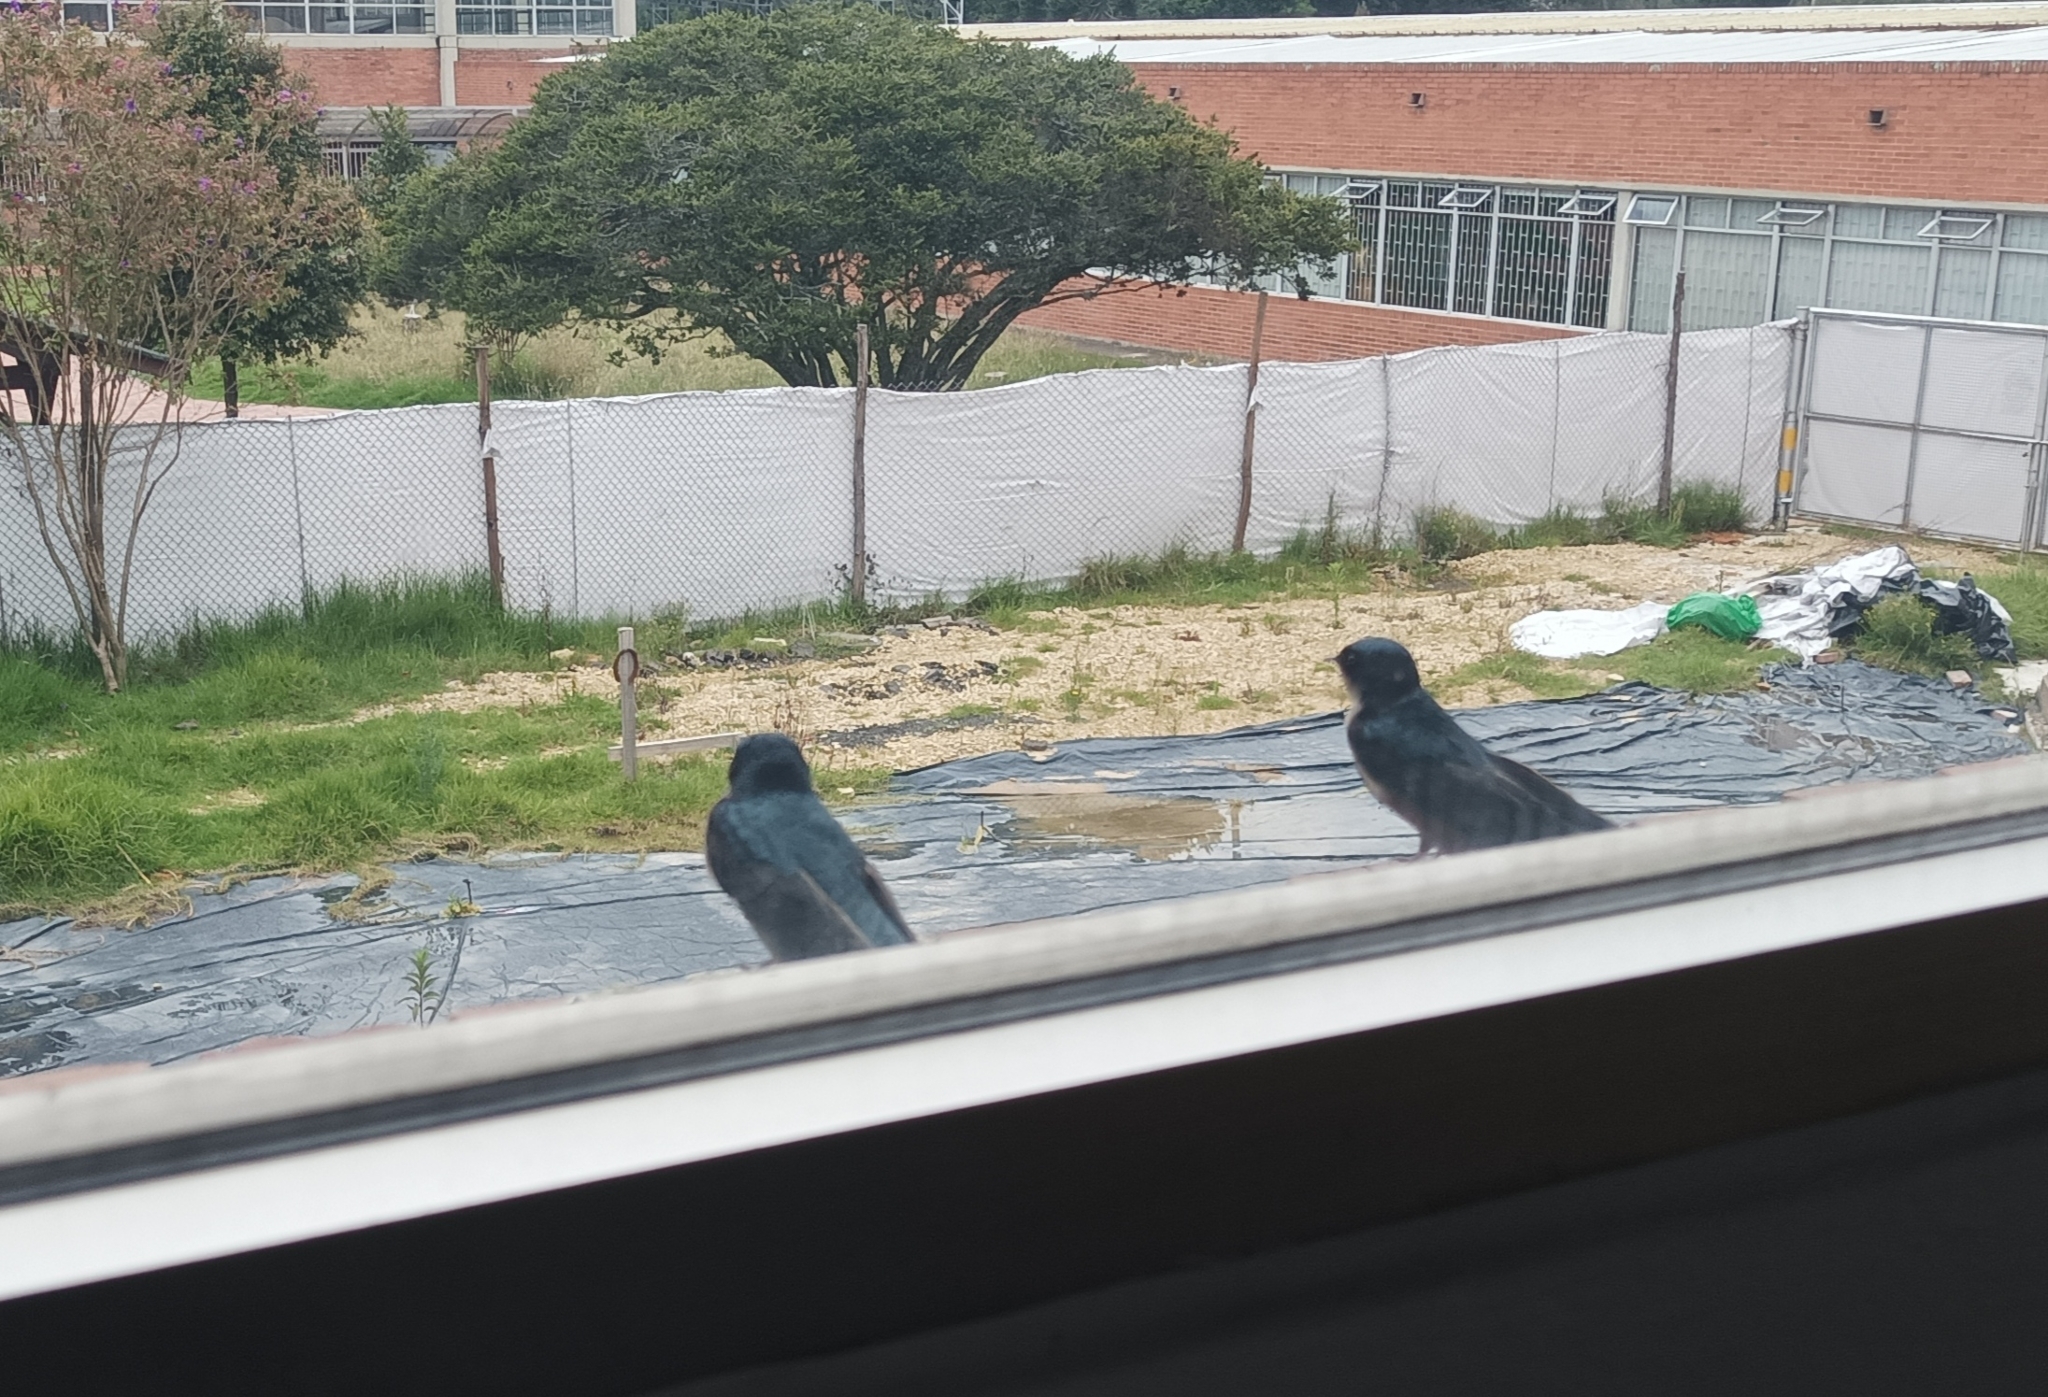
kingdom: Animalia
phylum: Chordata
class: Aves
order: Passeriformes
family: Hirundinidae
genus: Notiochelidon
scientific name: Notiochelidon murina
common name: Brown-bellied swallow
